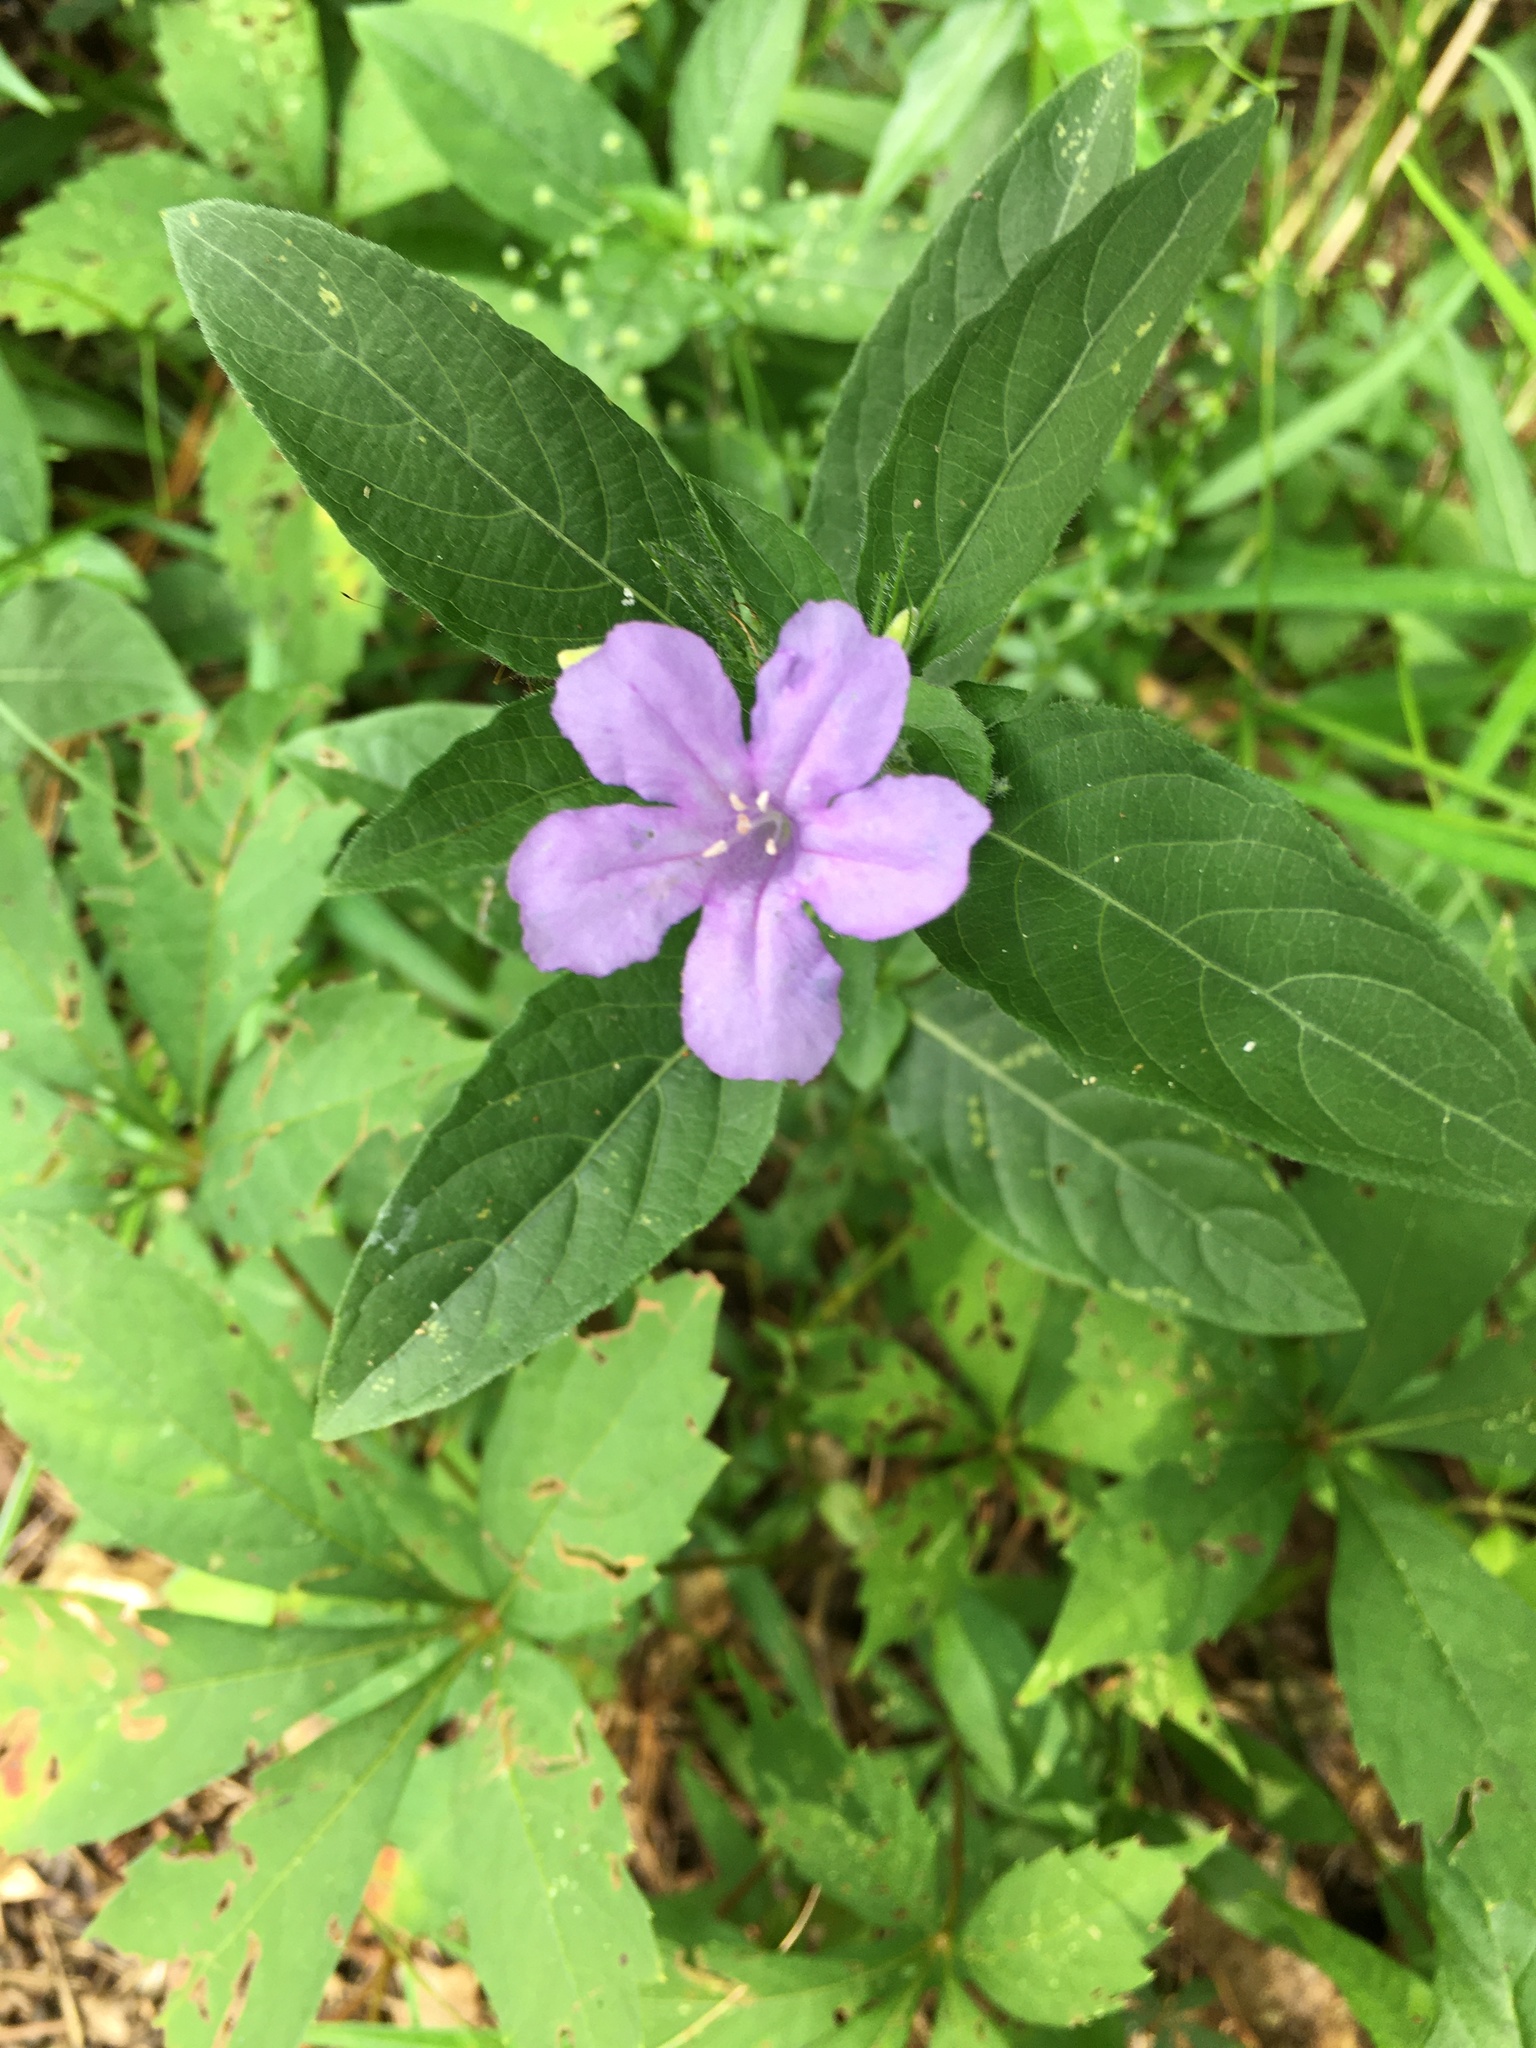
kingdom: Plantae
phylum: Tracheophyta
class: Magnoliopsida
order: Lamiales
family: Acanthaceae
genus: Ruellia
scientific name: Ruellia caroliniensis
